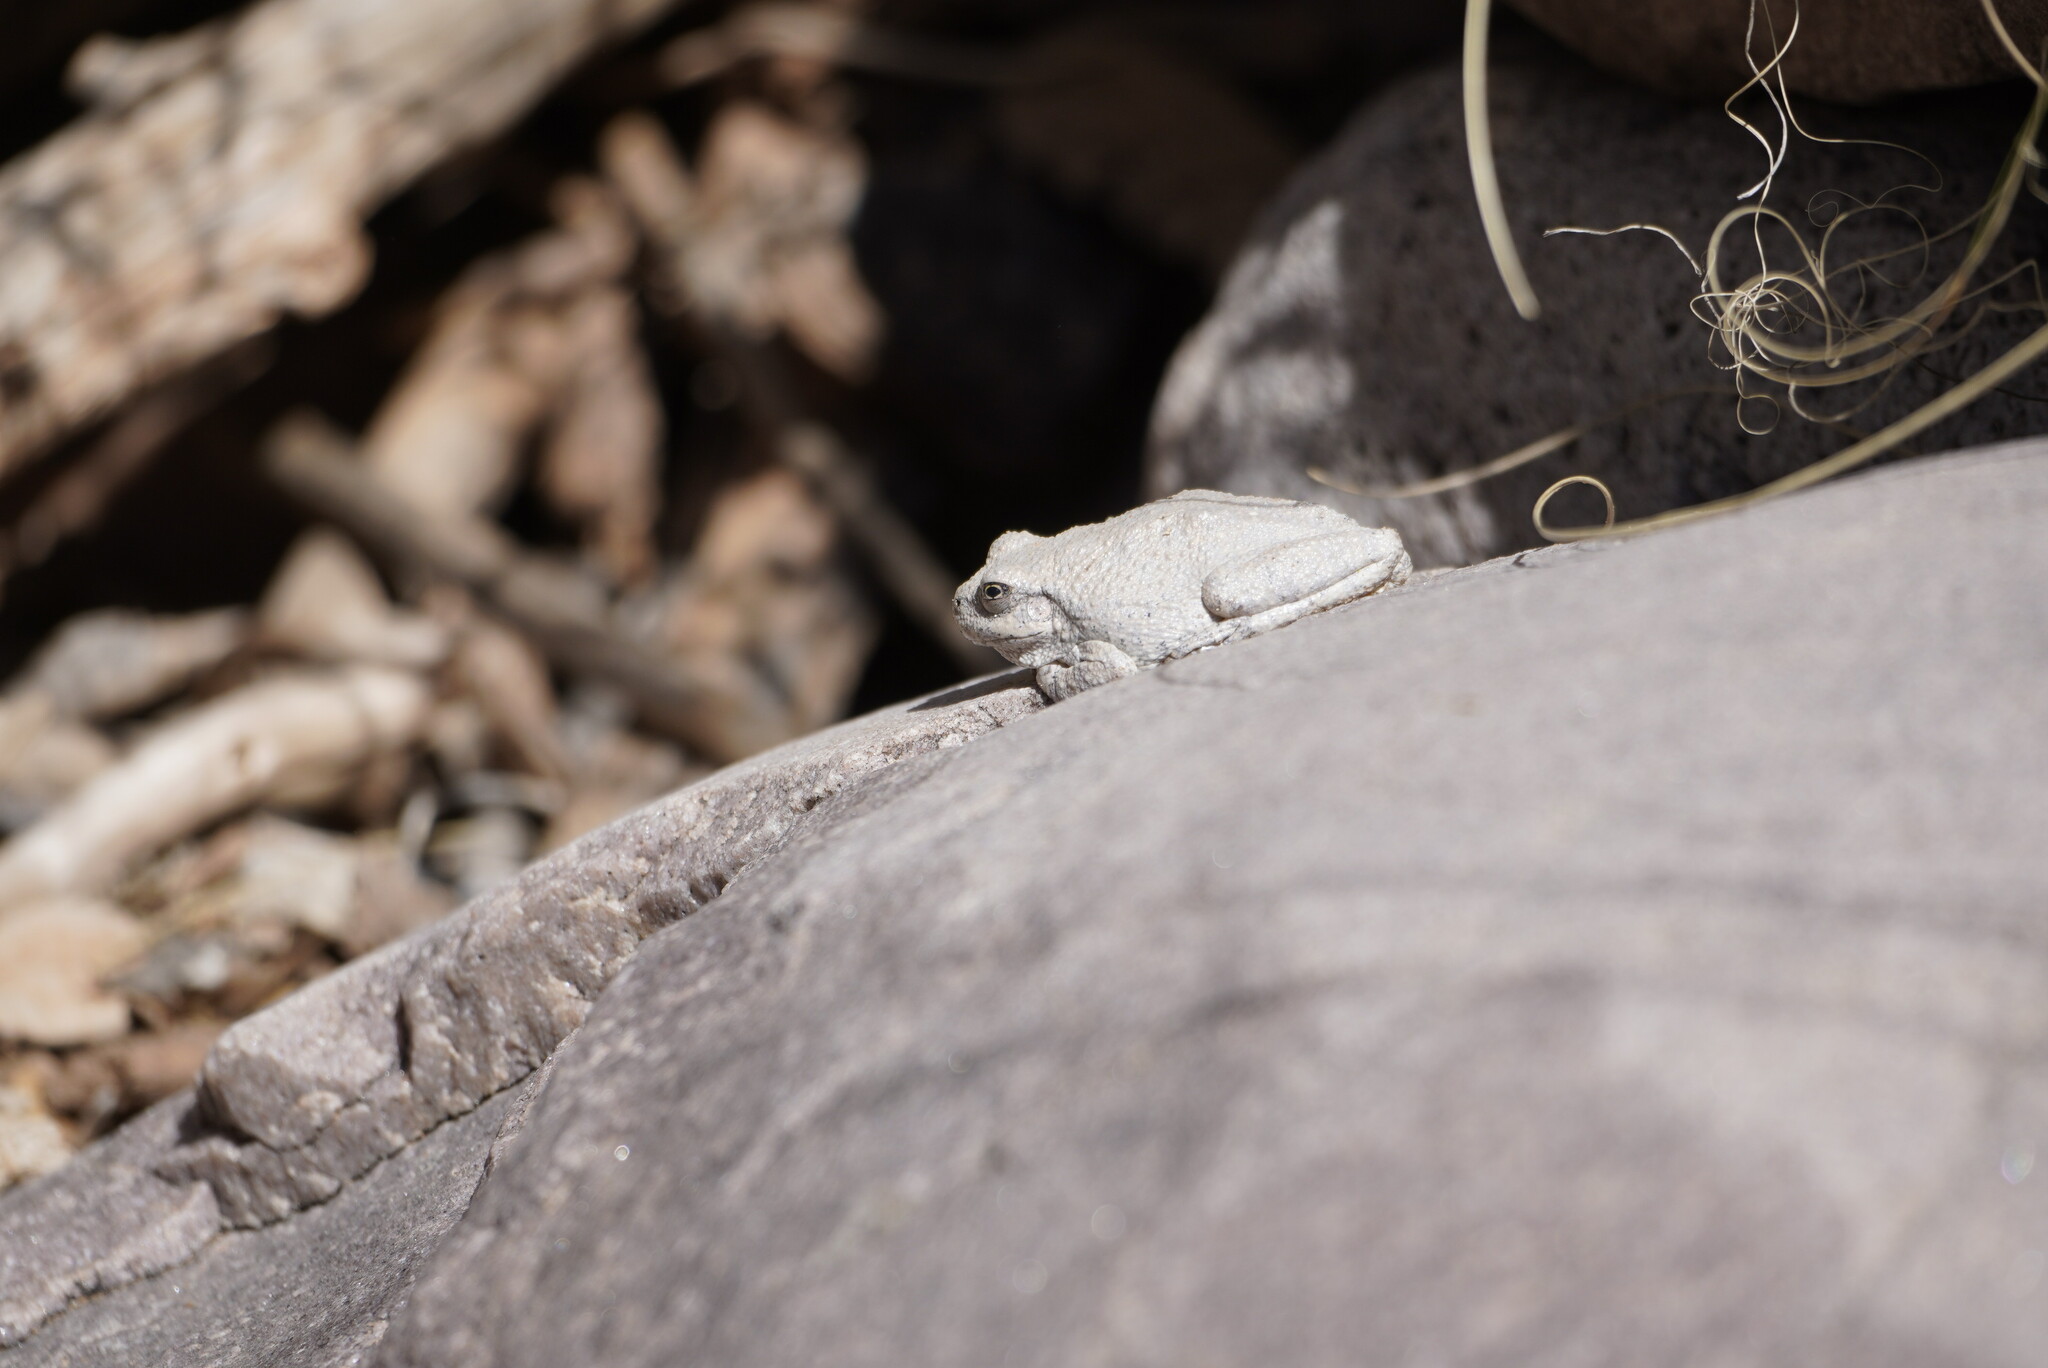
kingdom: Animalia
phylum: Chordata
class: Amphibia
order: Anura
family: Hylidae
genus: Dryophytes
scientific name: Dryophytes arenicolor
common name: Canyon treefrog
